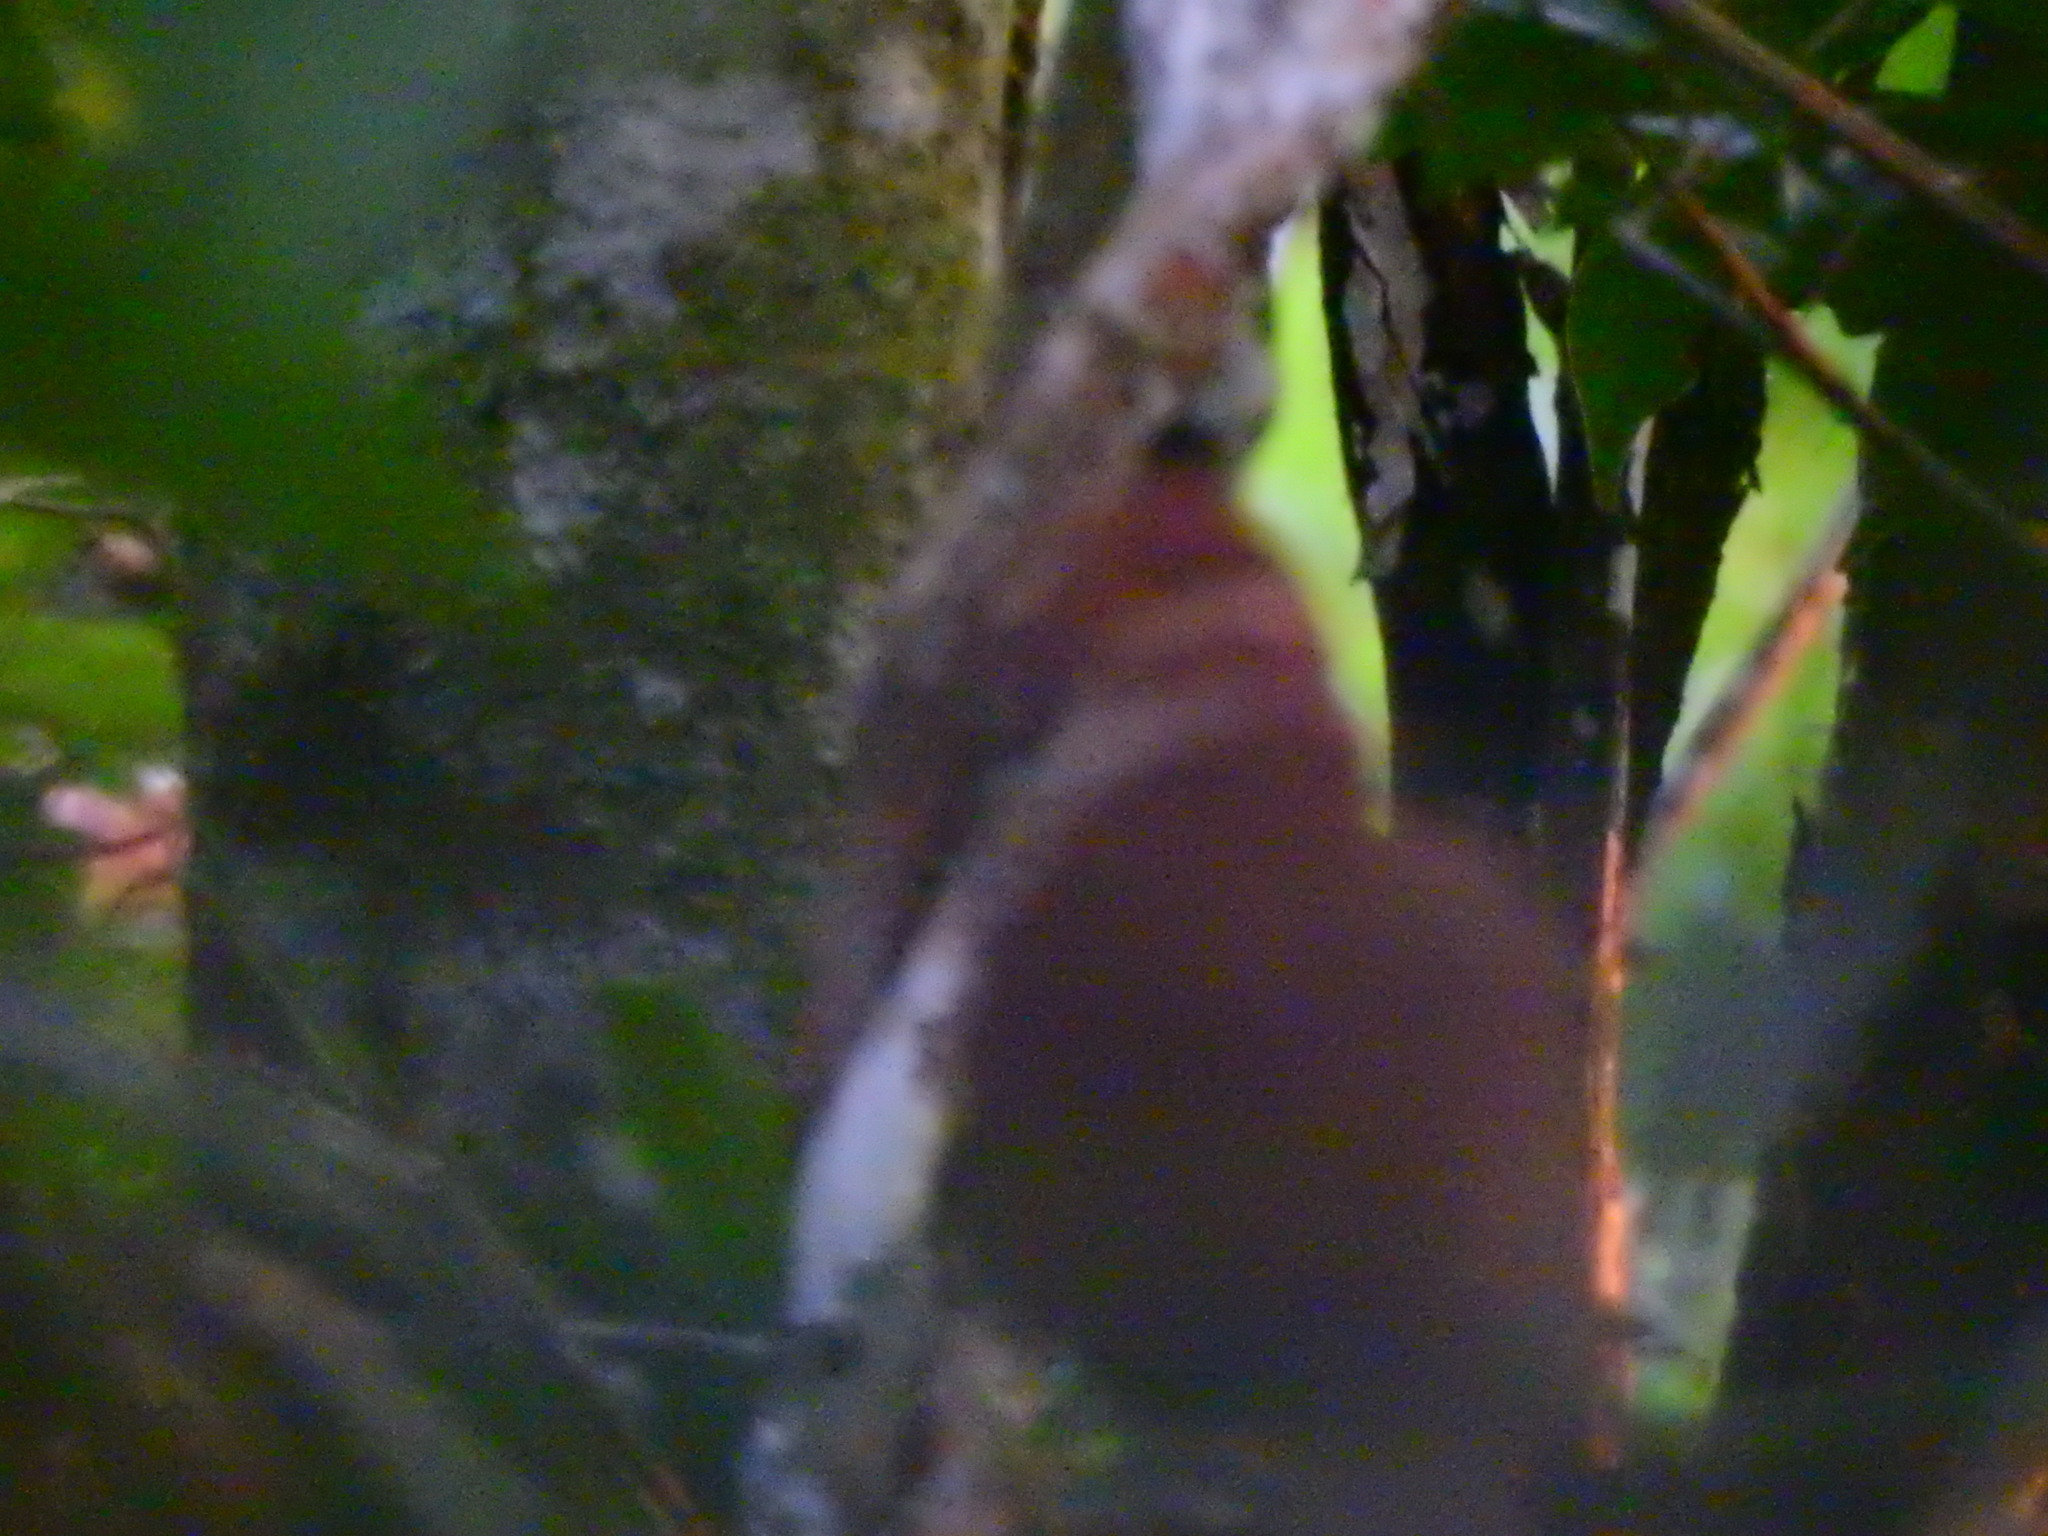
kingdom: Animalia
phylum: Chordata
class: Aves
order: Columbiformes
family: Columbidae
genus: Geotrygon
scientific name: Geotrygon montana
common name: Ruddy quail-dove
